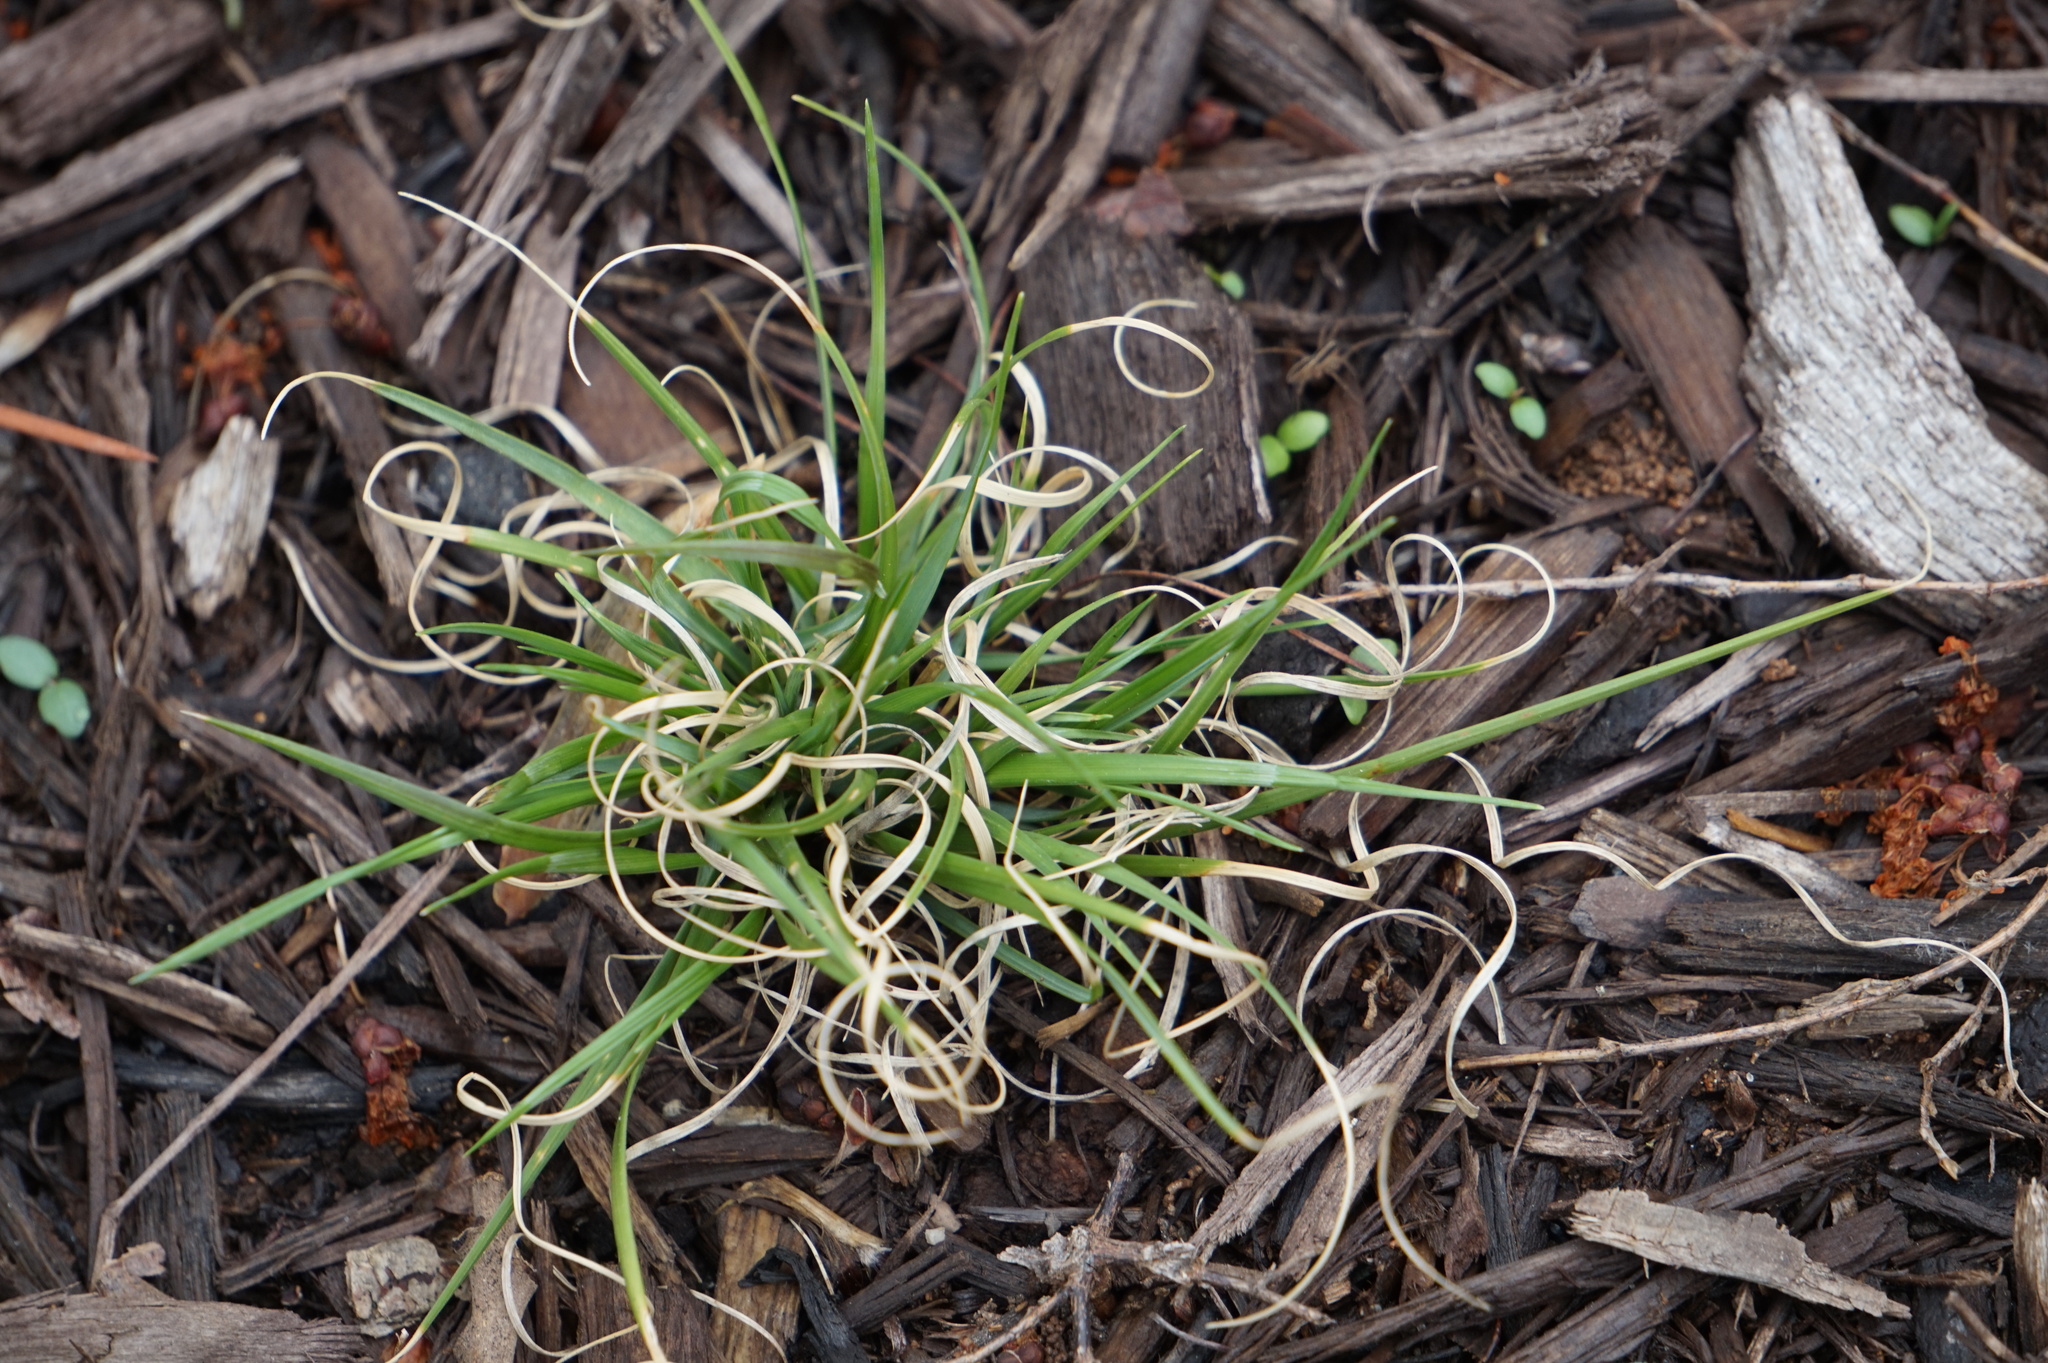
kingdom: Plantae
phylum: Tracheophyta
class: Liliopsida
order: Poales
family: Poaceae
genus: Danthonia
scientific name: Danthonia spicata
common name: Common wild oatgrass
